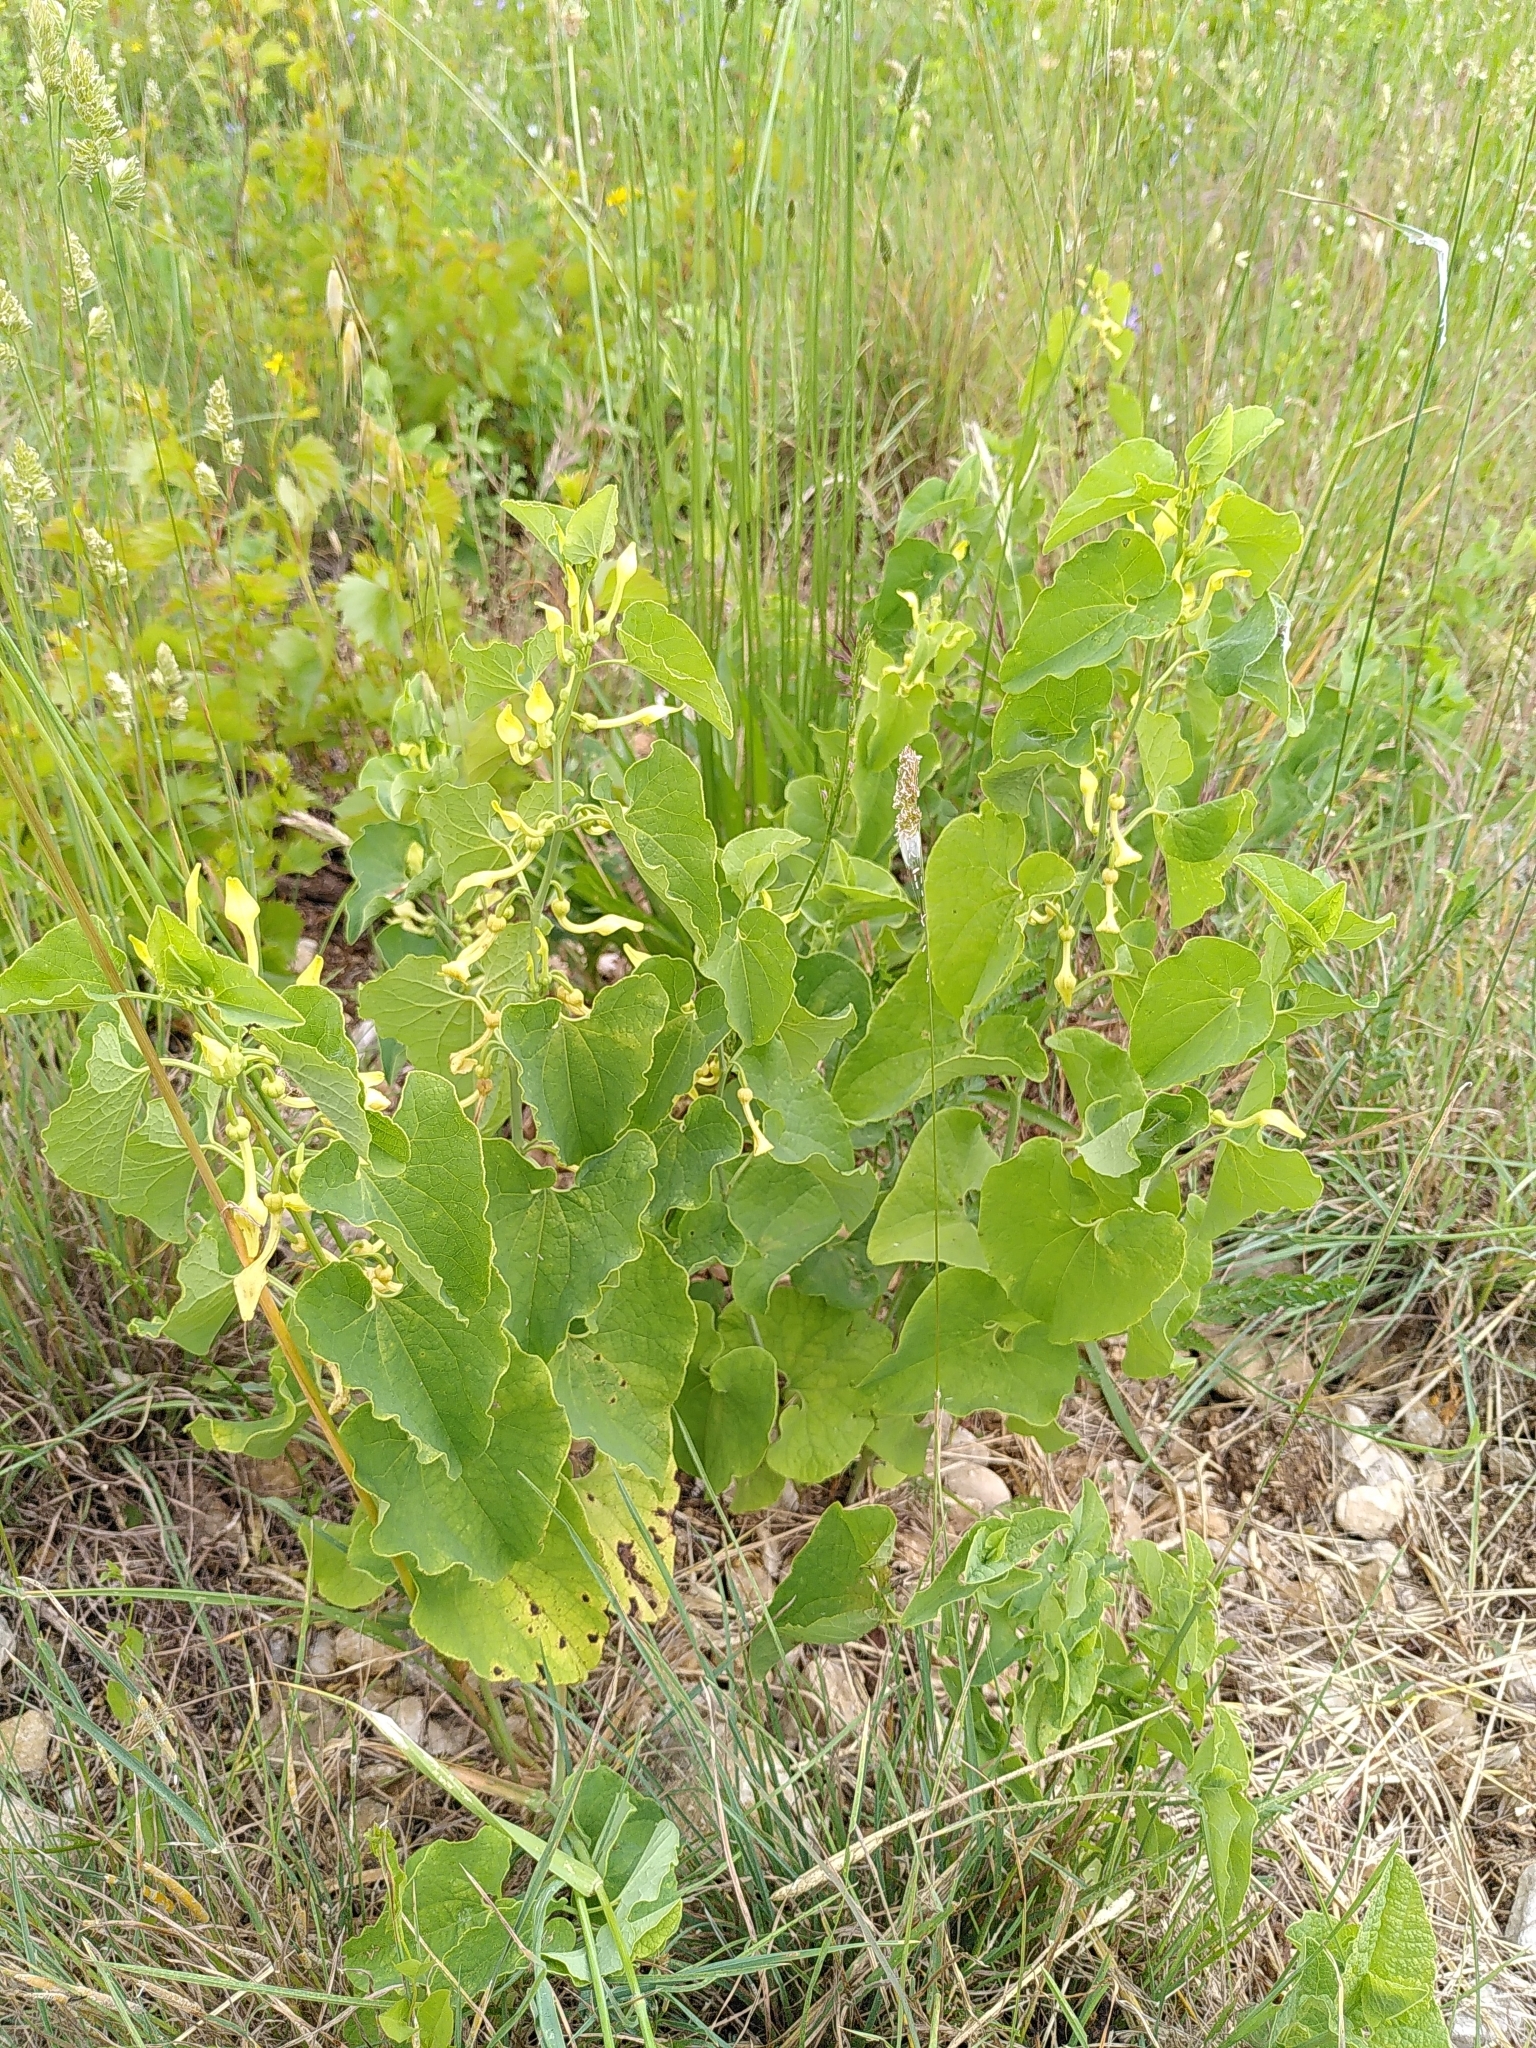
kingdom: Plantae
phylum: Tracheophyta
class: Magnoliopsida
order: Piperales
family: Aristolochiaceae
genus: Aristolochia
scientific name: Aristolochia clematitis
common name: Birthwort
